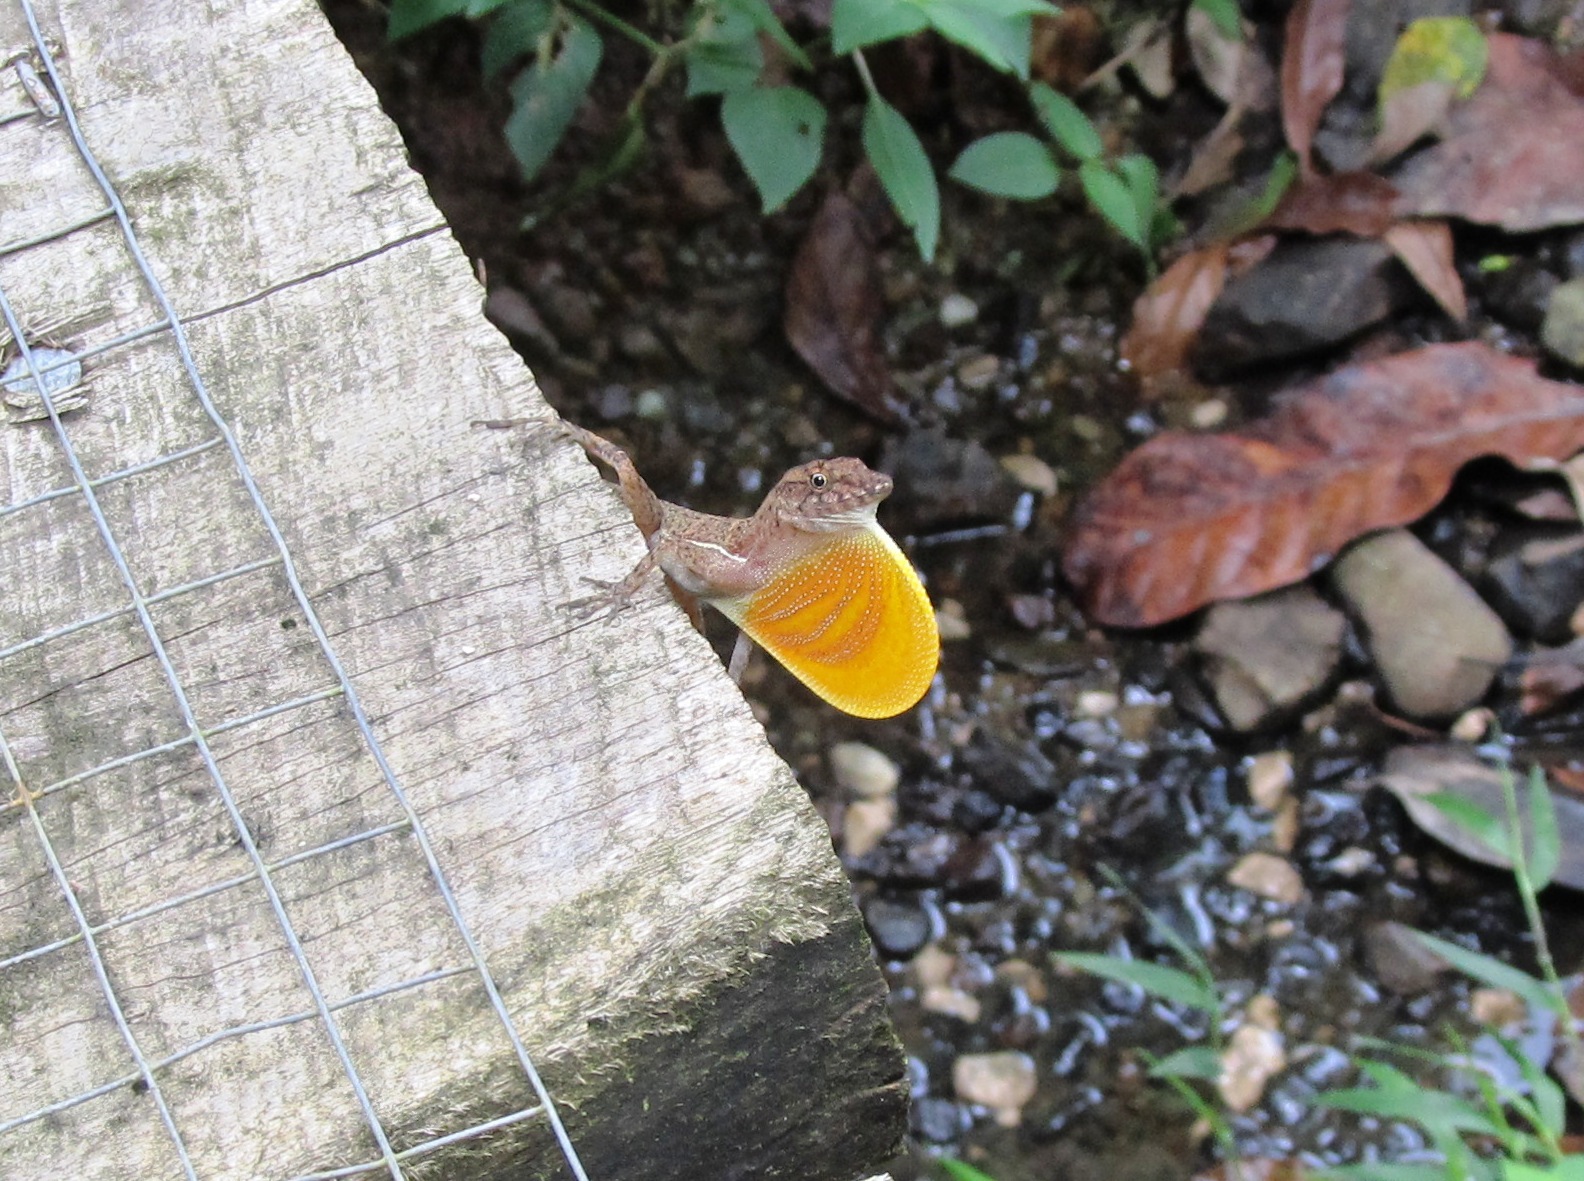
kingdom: Animalia
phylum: Chordata
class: Squamata
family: Dactyloidae
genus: Anolis
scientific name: Anolis polylepis
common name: Many-scaled anole
